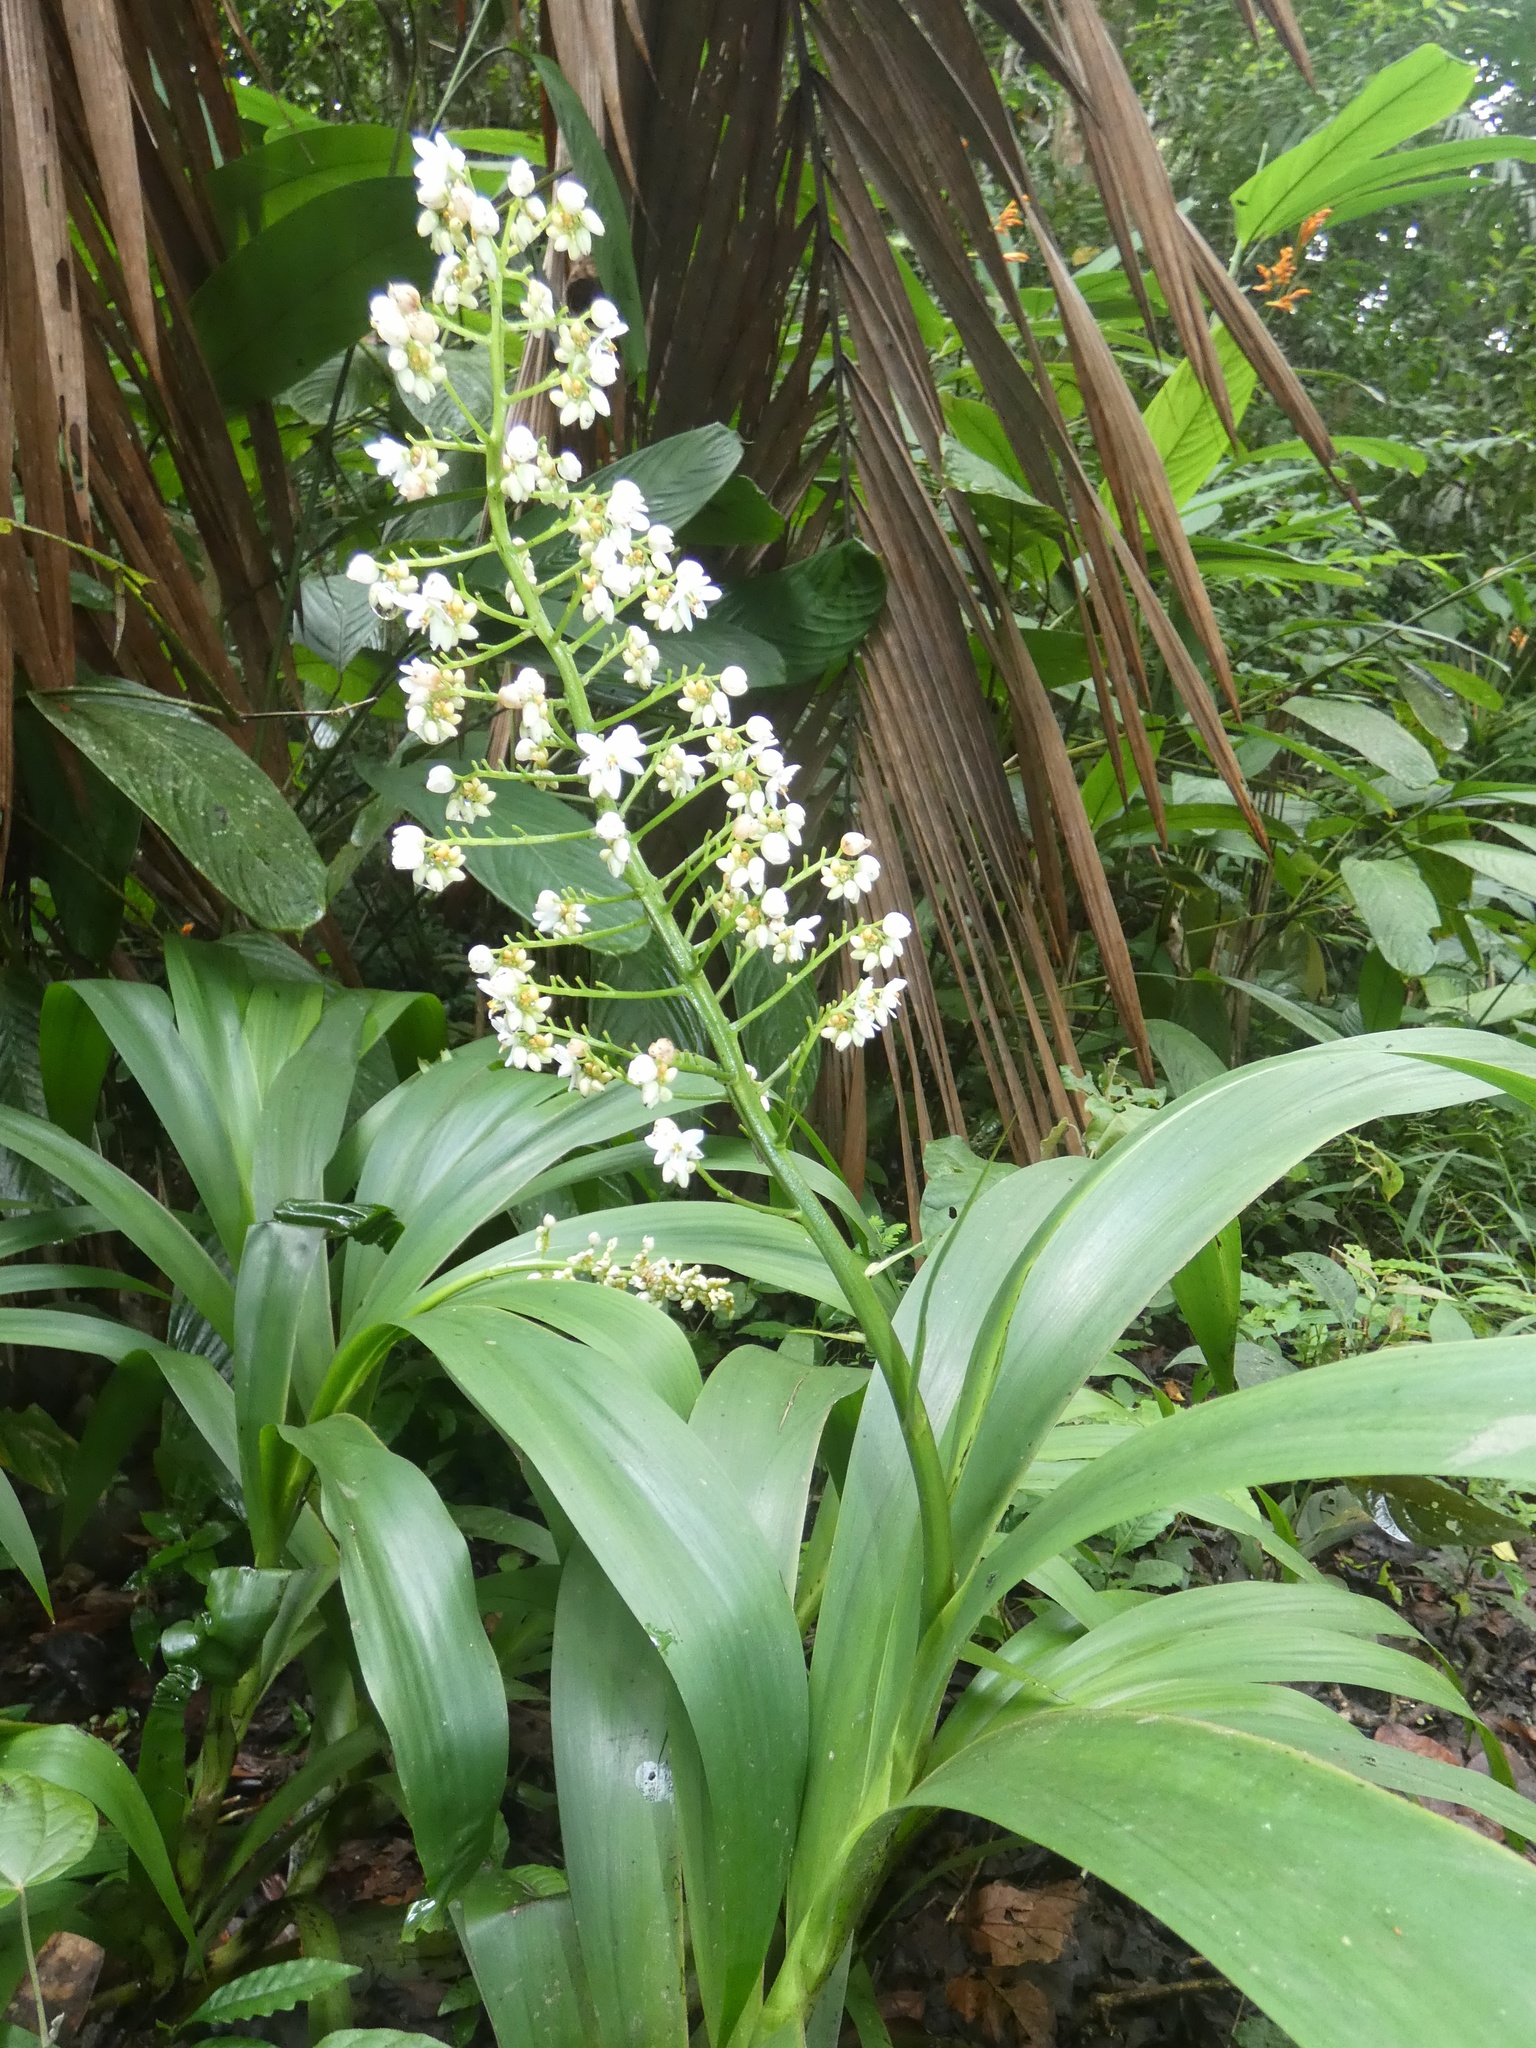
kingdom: Plantae
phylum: Tracheophyta
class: Liliopsida
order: Commelinales
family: Haemodoraceae
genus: Xiphidium
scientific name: Xiphidium caeruleum
